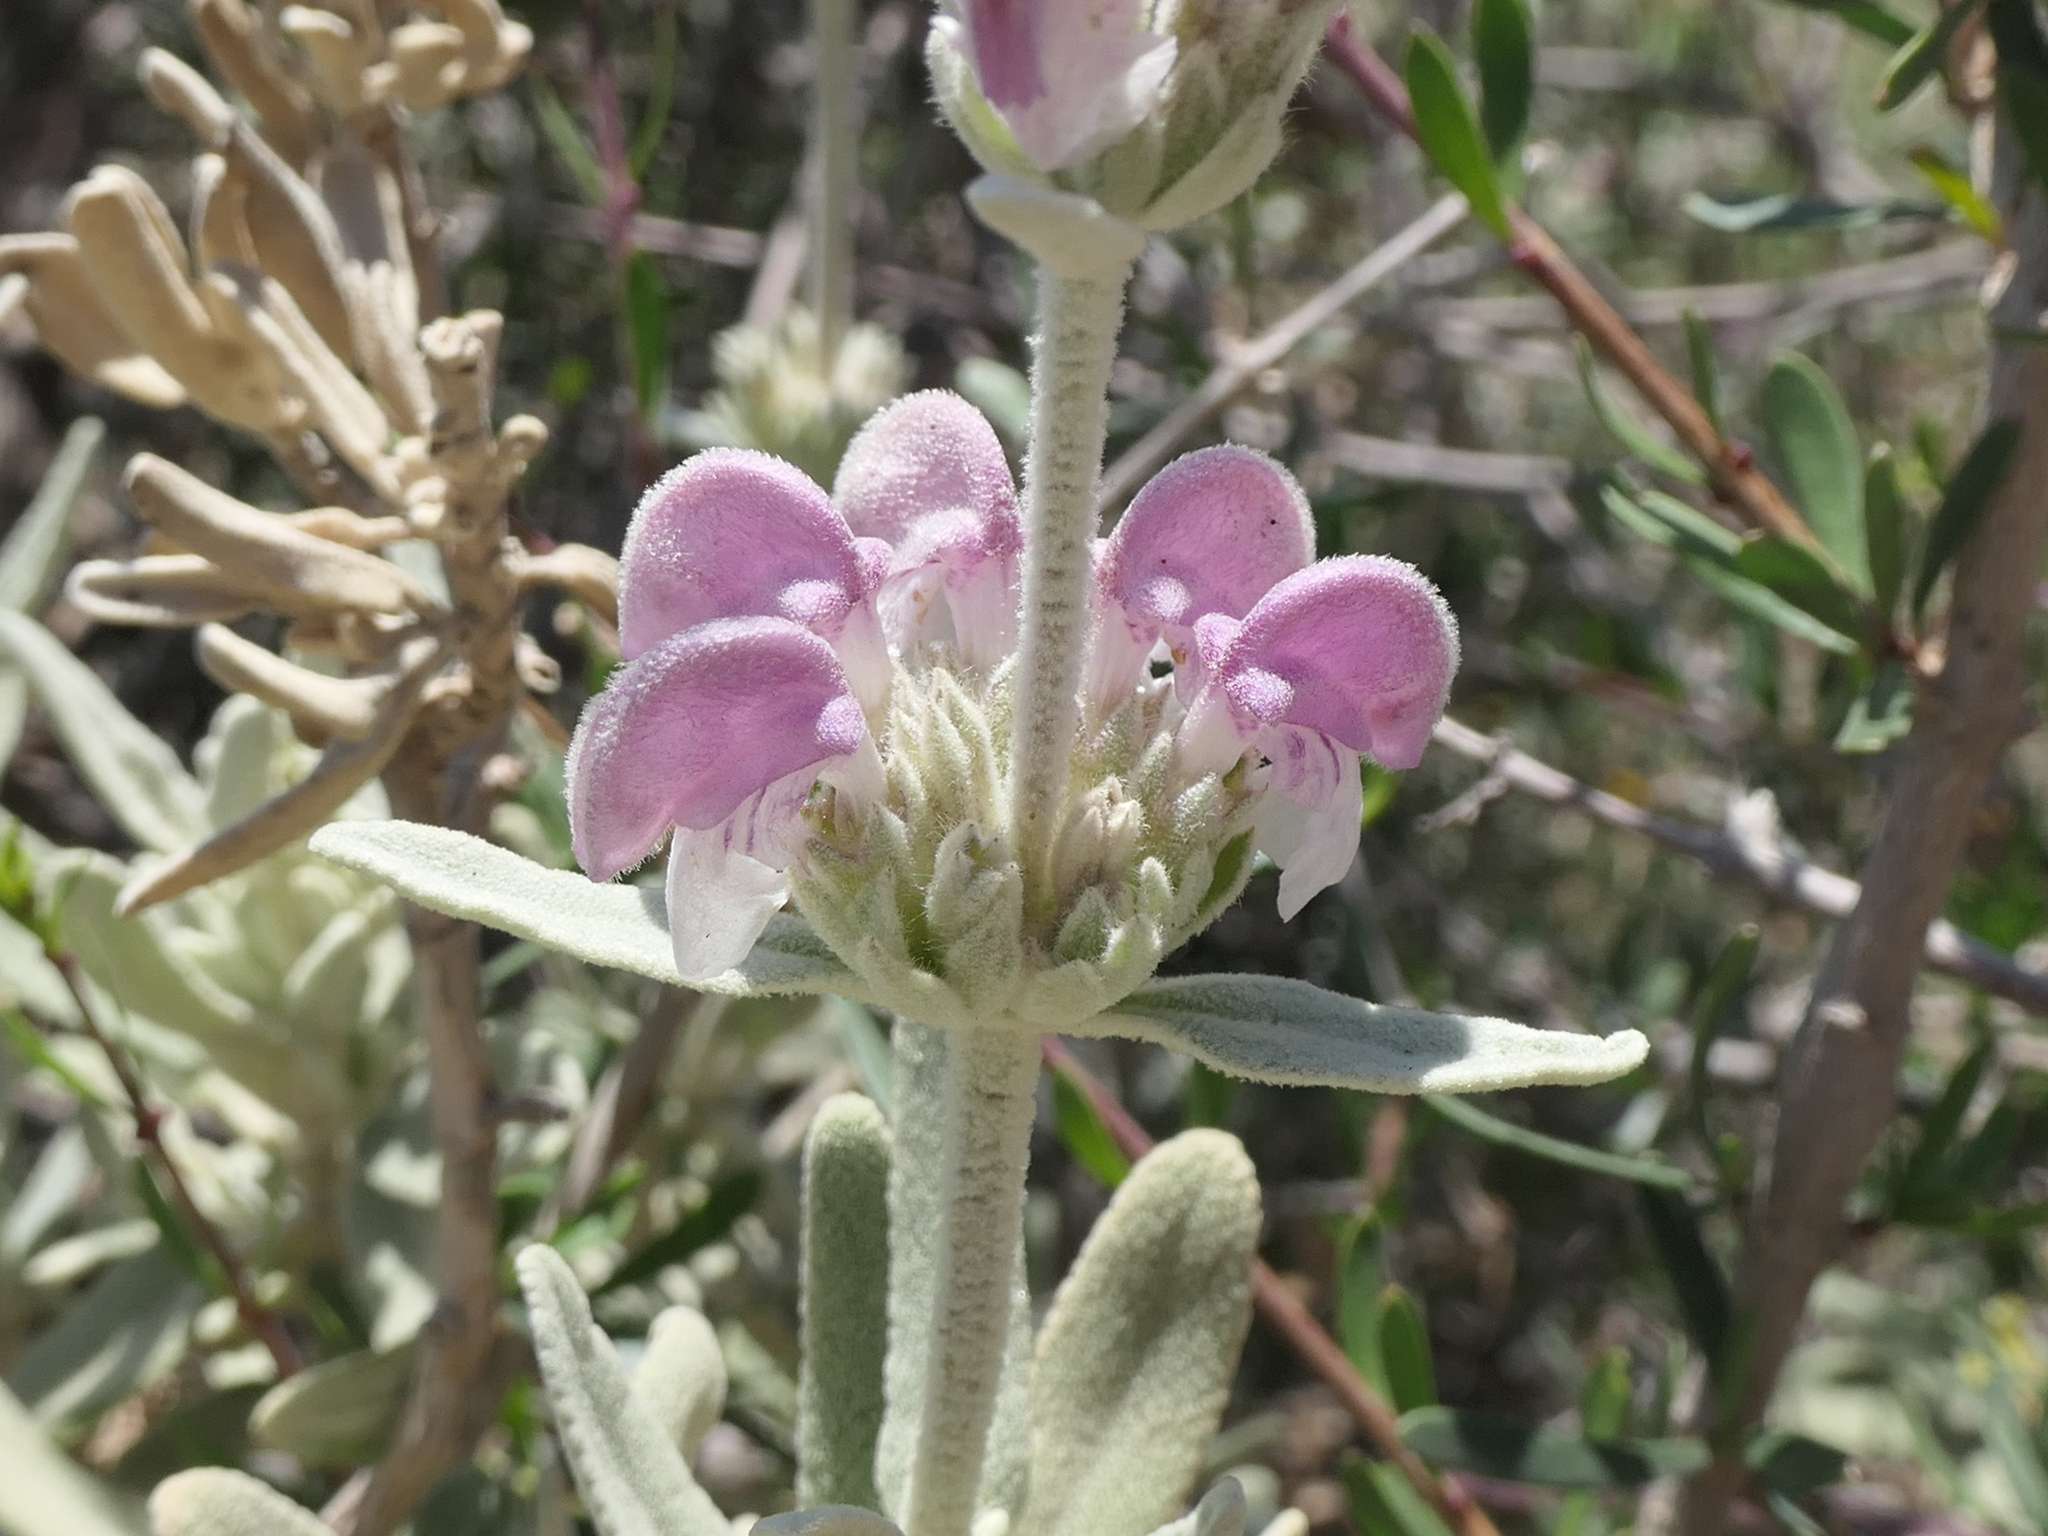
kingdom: Plantae
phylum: Tracheophyta
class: Magnoliopsida
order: Lamiales
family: Lamiaceae
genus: Phlomis
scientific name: Phlomis purpurea
